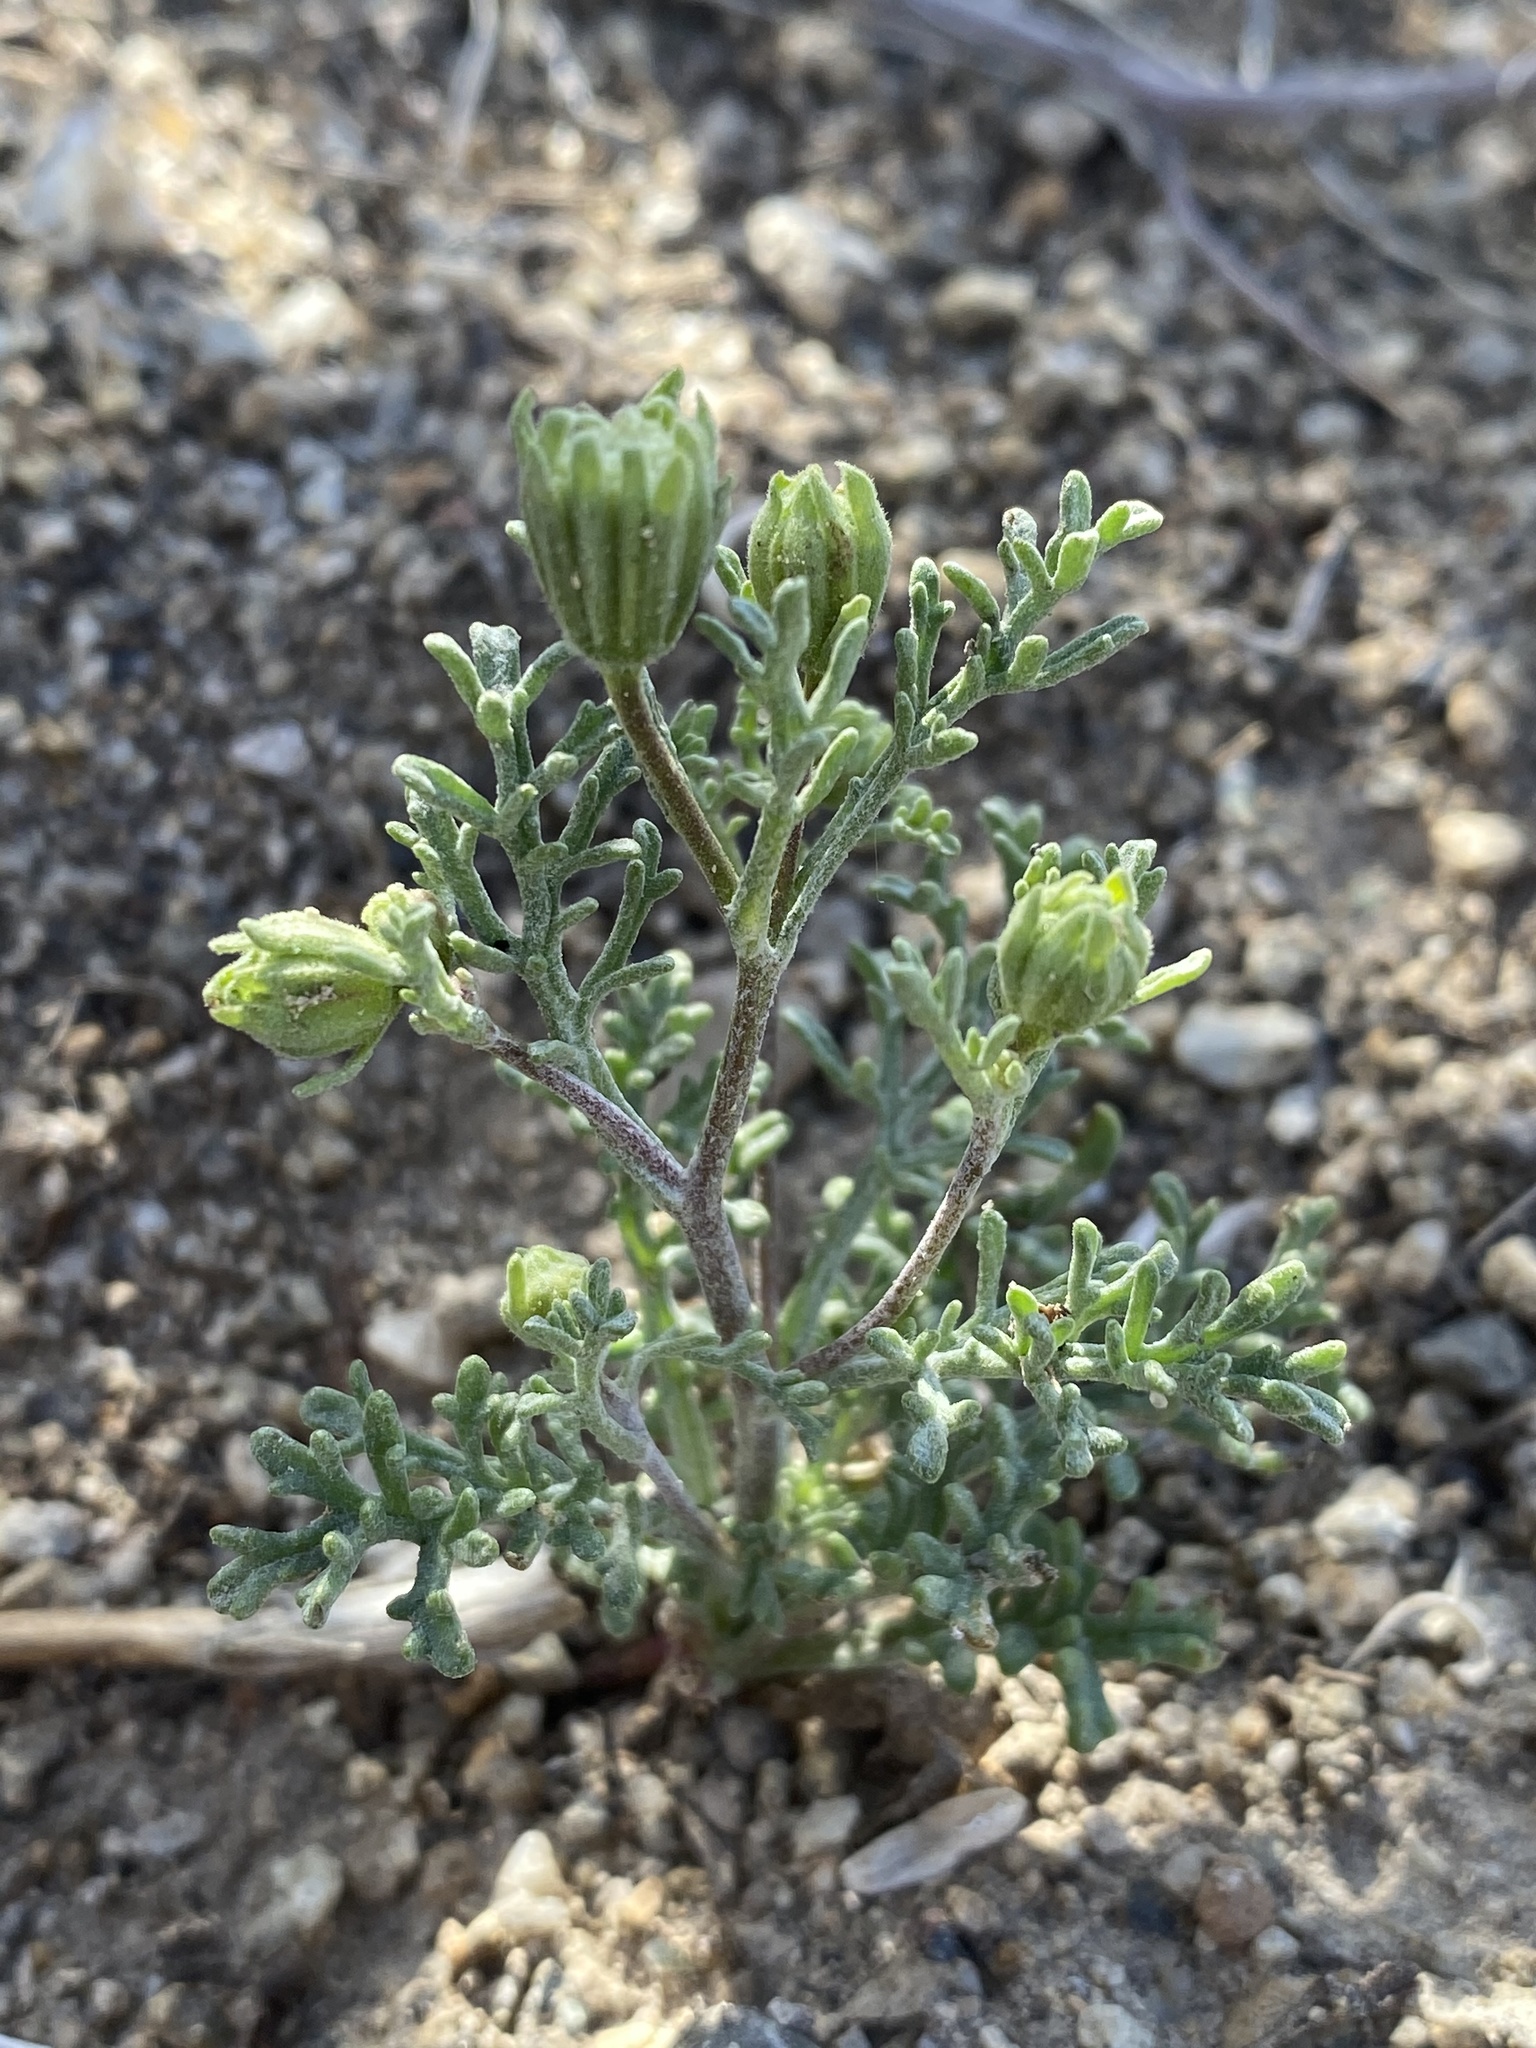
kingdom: Plantae
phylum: Tracheophyta
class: Magnoliopsida
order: Asterales
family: Asteraceae
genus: Chaenactis
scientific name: Chaenactis stevioides
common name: Desert pincushion
